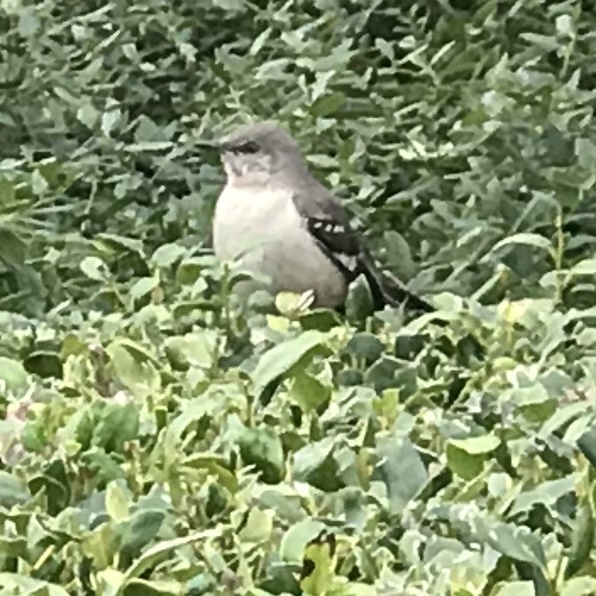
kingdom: Animalia
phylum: Chordata
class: Aves
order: Passeriformes
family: Mimidae
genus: Mimus
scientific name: Mimus polyglottos
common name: Northern mockingbird
